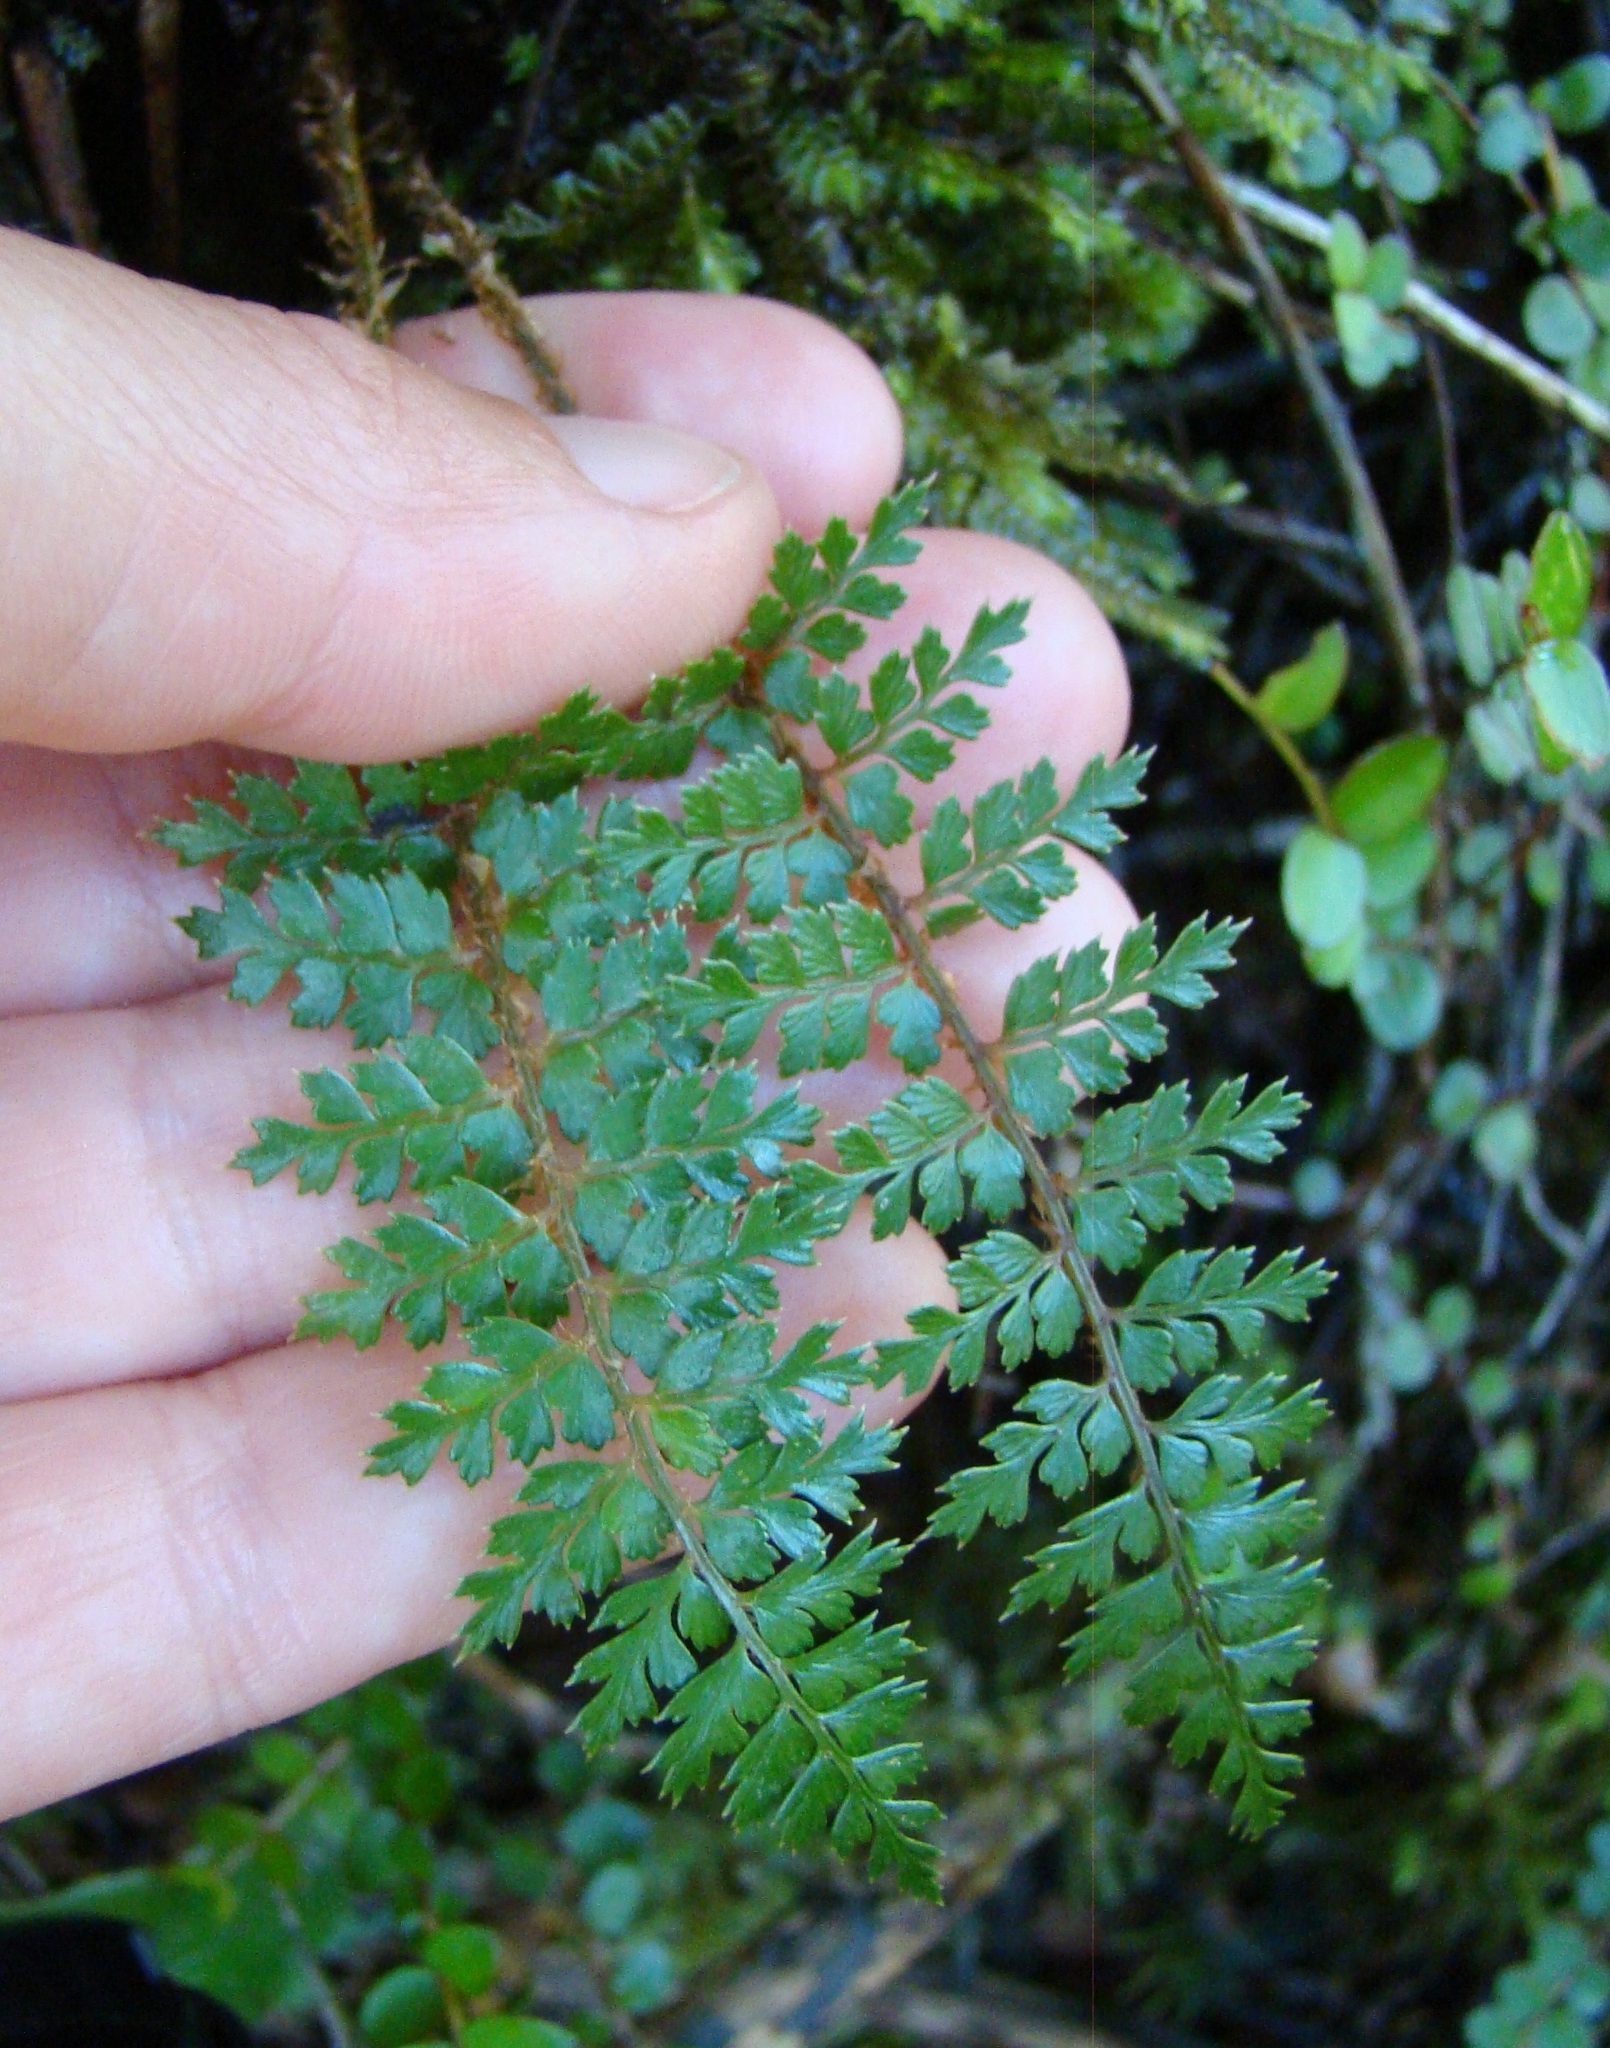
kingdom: Plantae
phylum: Tracheophyta
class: Polypodiopsida
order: Polypodiales
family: Dryopteridaceae
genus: Polystichum
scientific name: Polystichum vestitum
